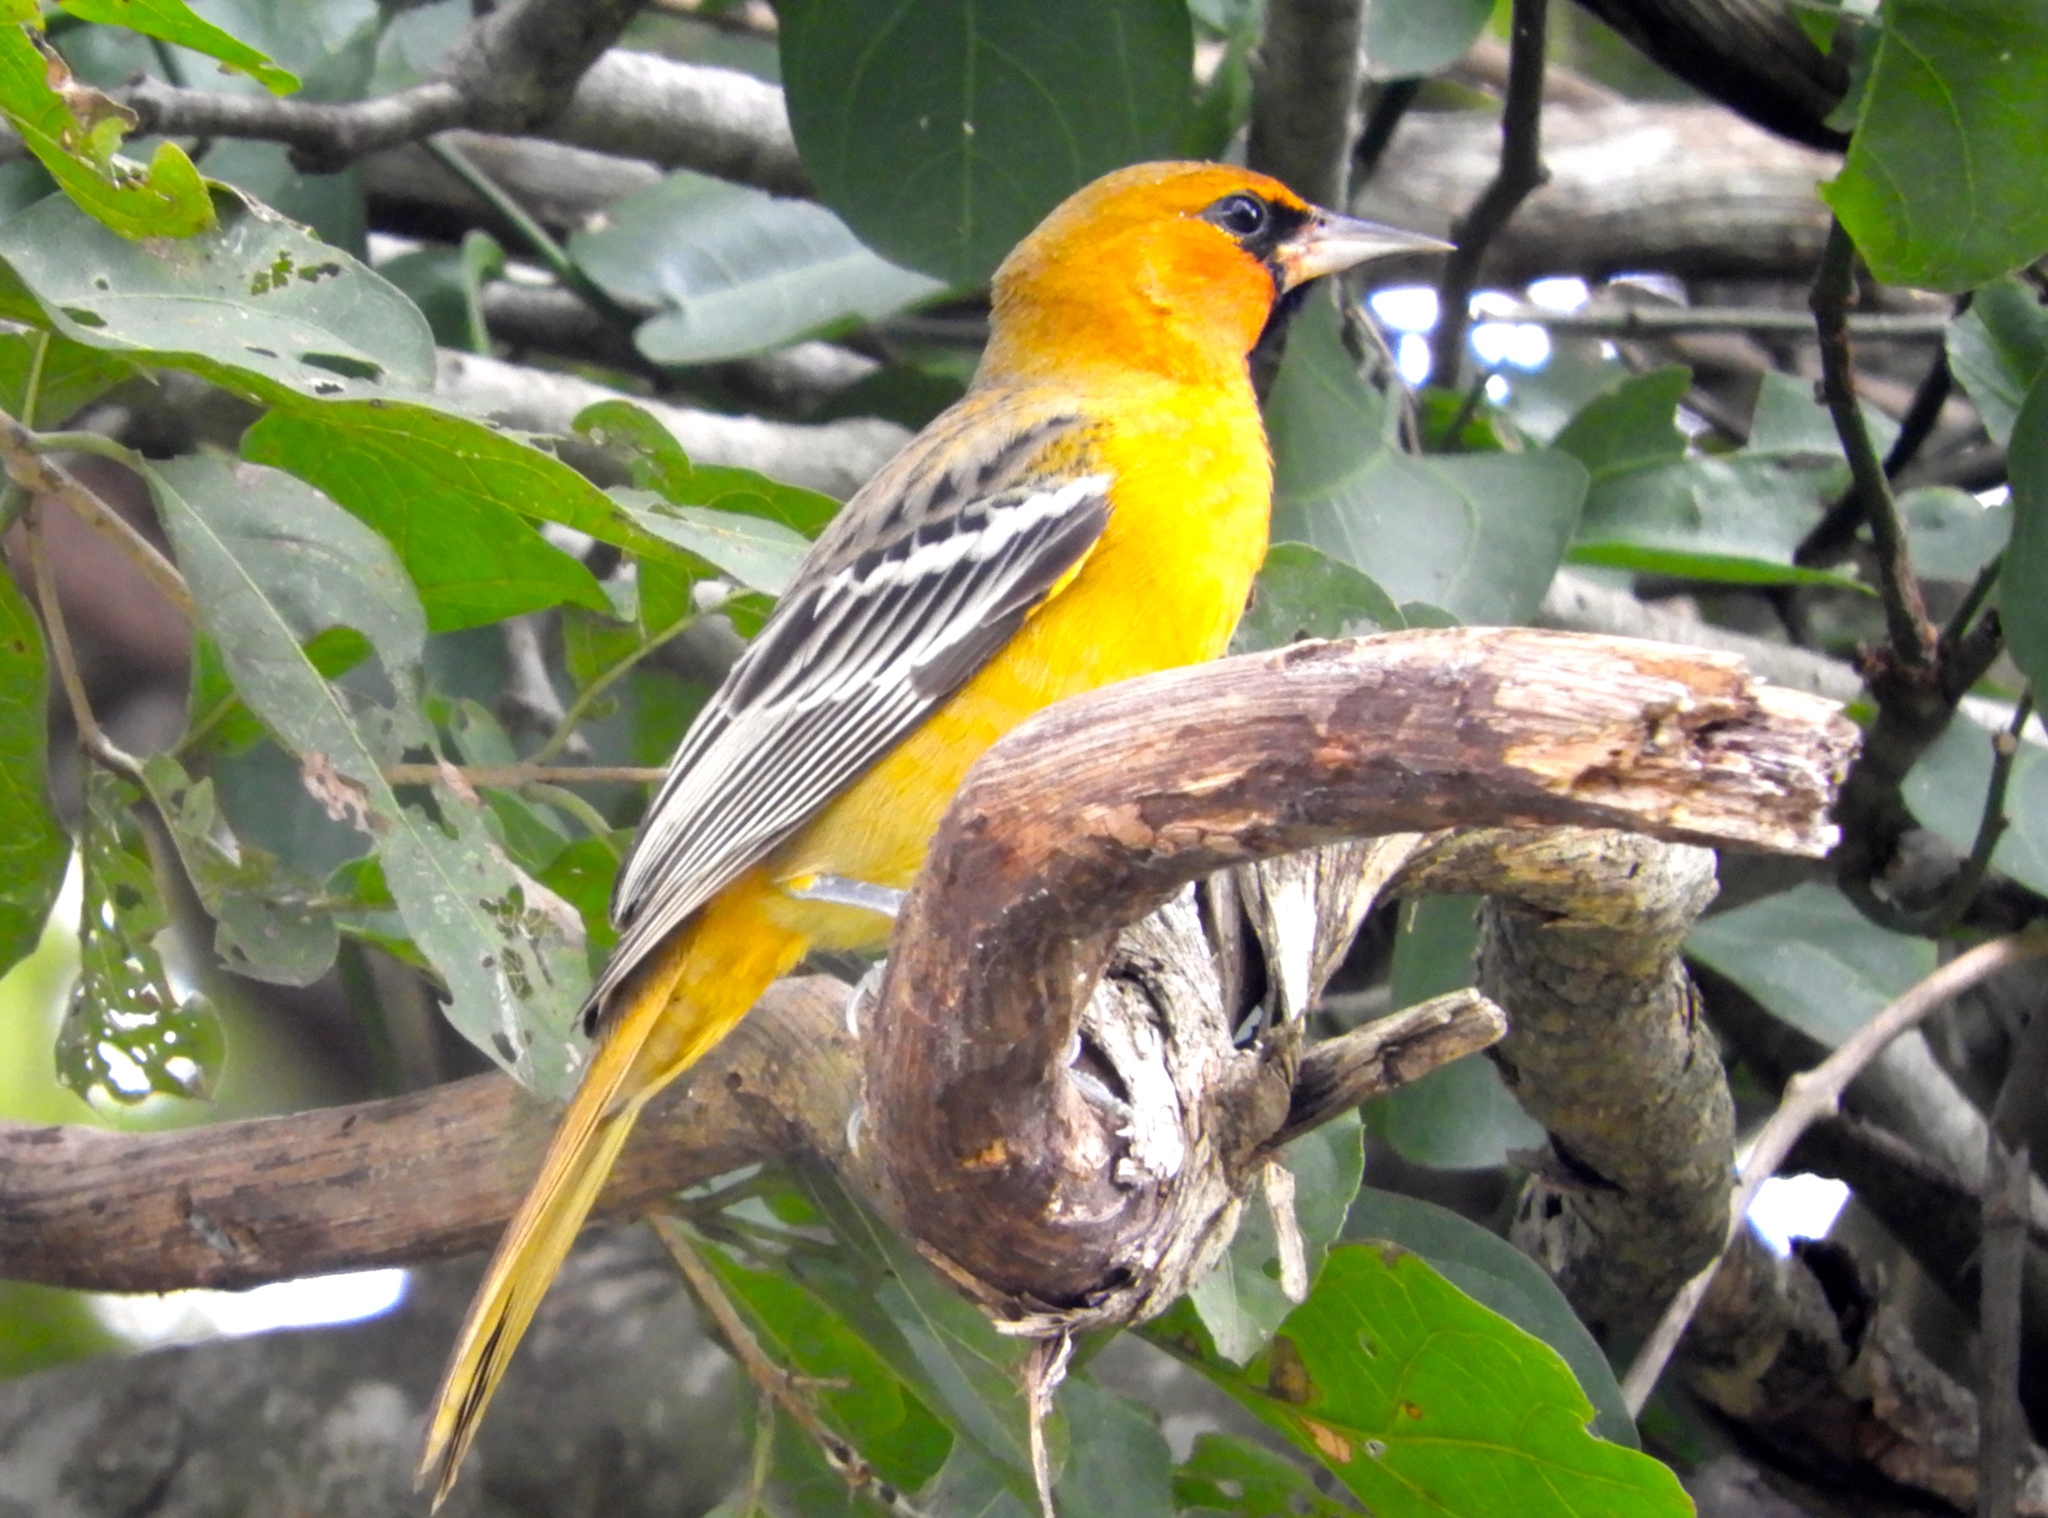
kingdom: Animalia
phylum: Chordata
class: Aves
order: Passeriformes
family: Icteridae
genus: Icterus
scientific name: Icterus pustulatus
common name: Streak-backed oriole
